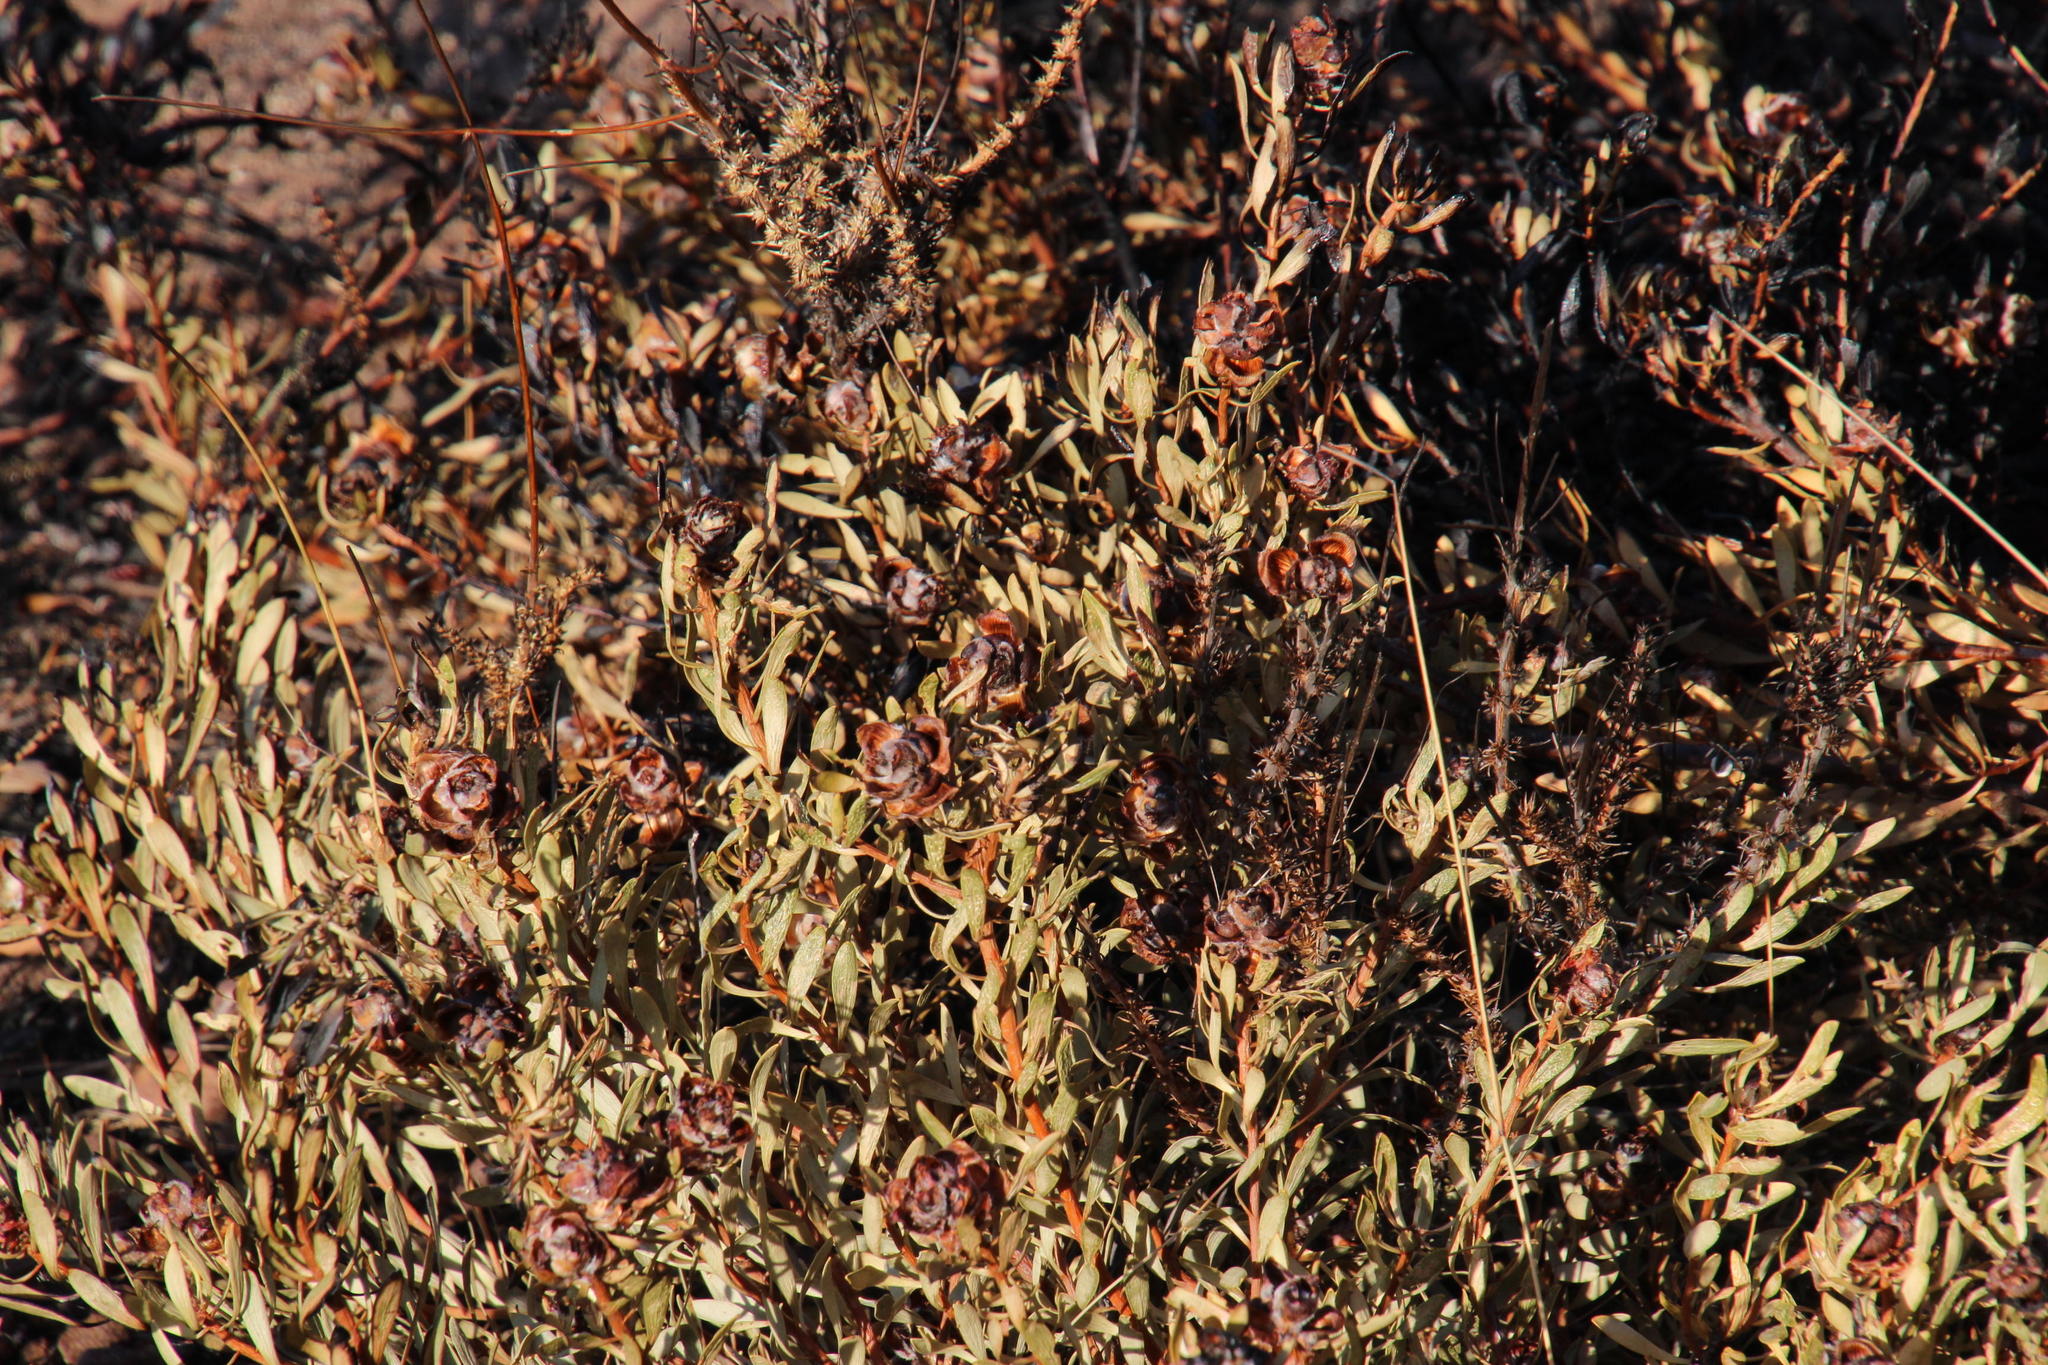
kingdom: Plantae
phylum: Tracheophyta
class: Magnoliopsida
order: Proteales
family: Proteaceae
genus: Leucadendron
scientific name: Leucadendron glaberrimum
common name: Common oily conebush
